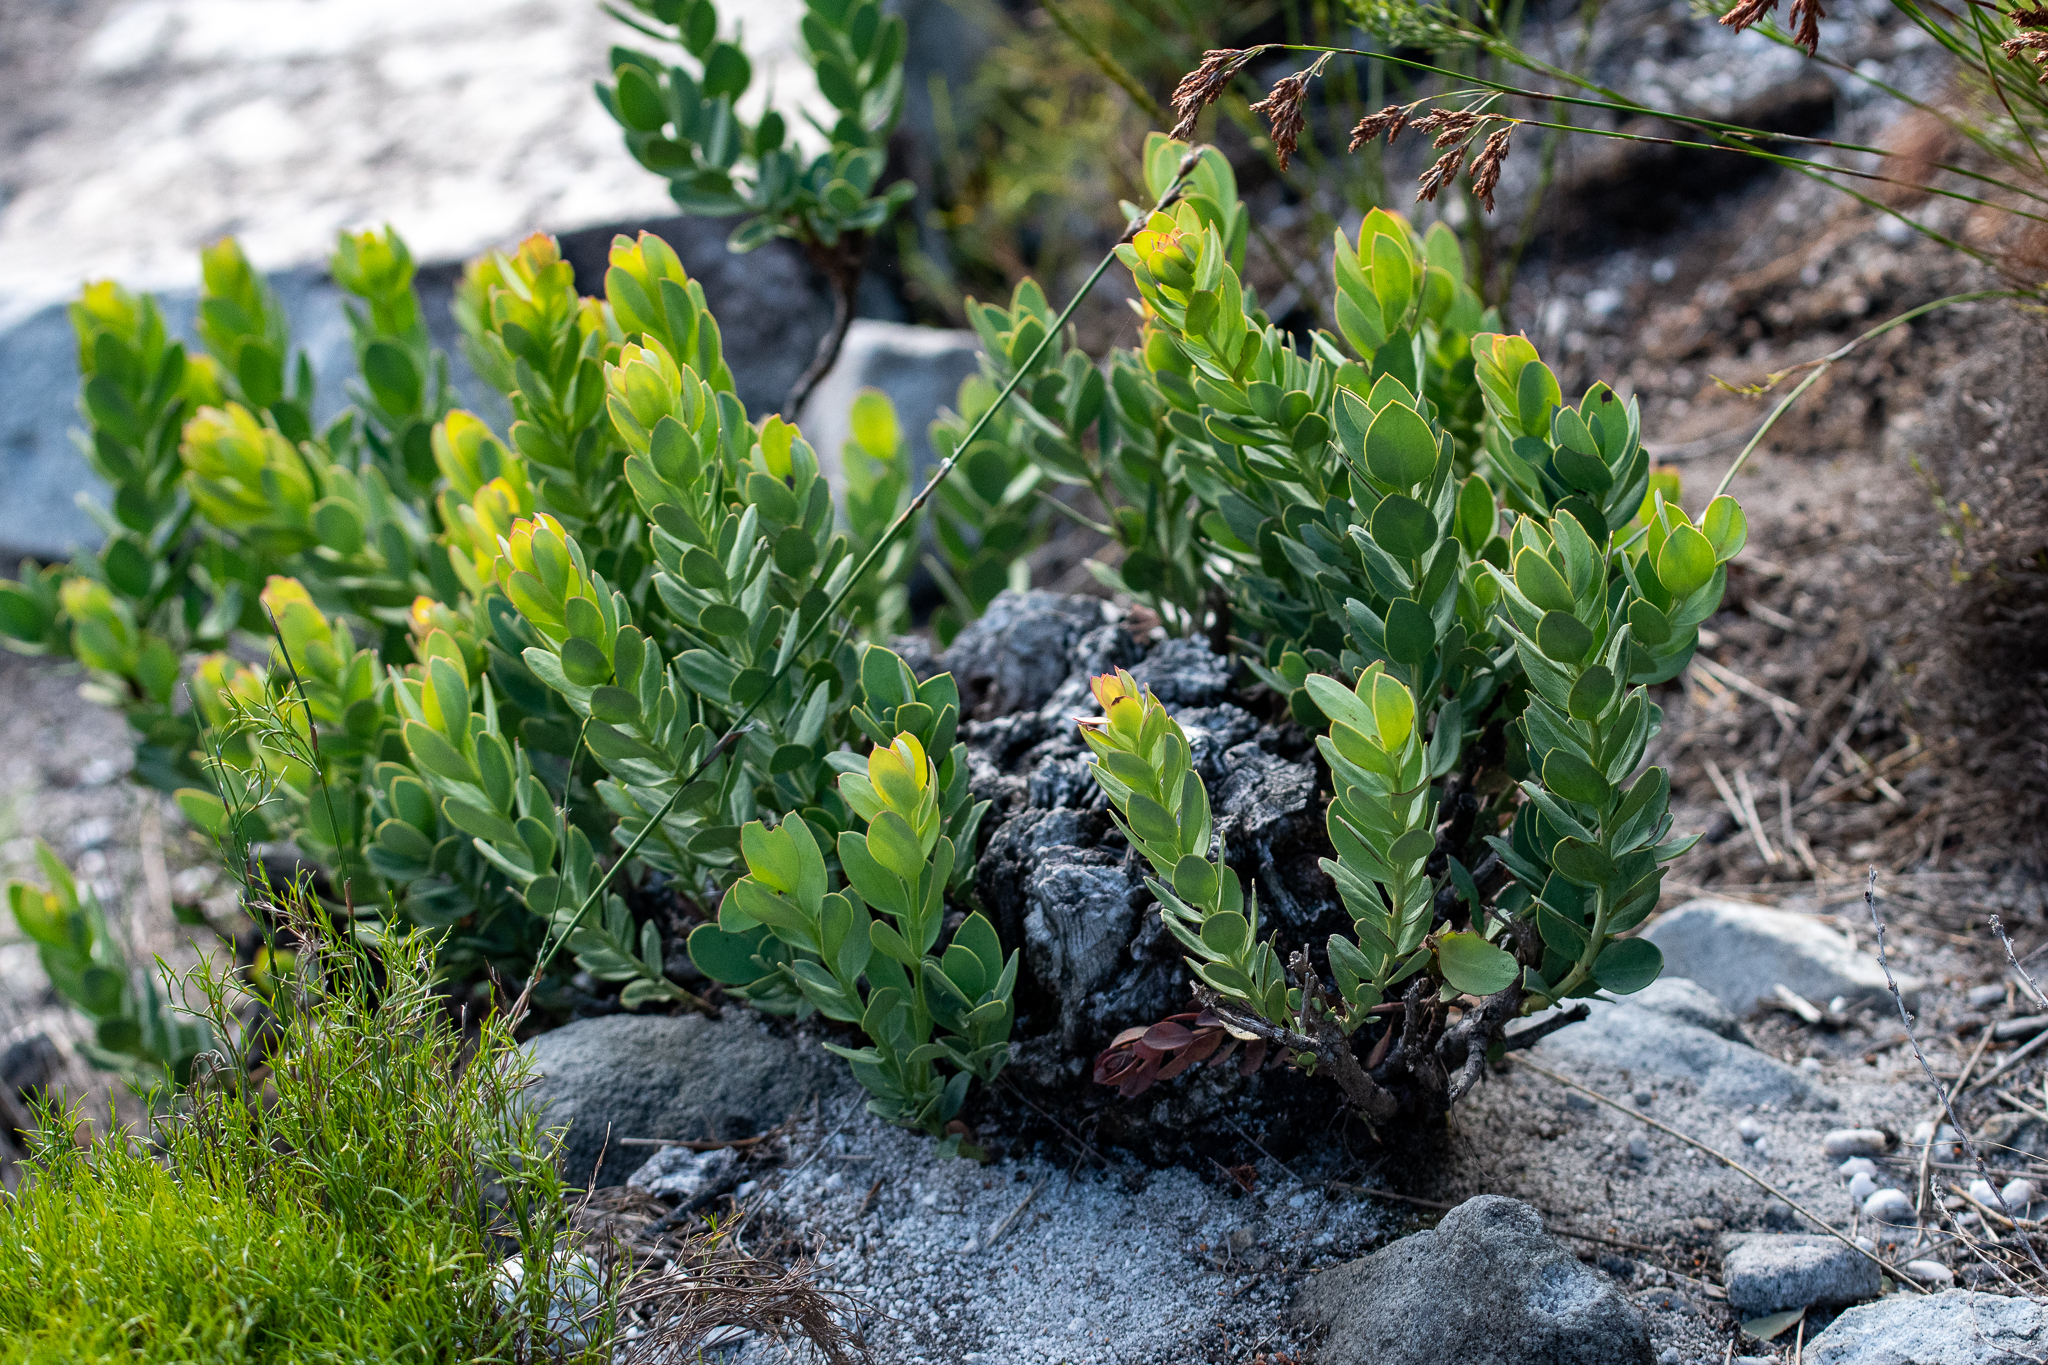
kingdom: Plantae
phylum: Tracheophyta
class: Magnoliopsida
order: Santalales
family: Santalaceae
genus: Osyris
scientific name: Osyris speciosa
